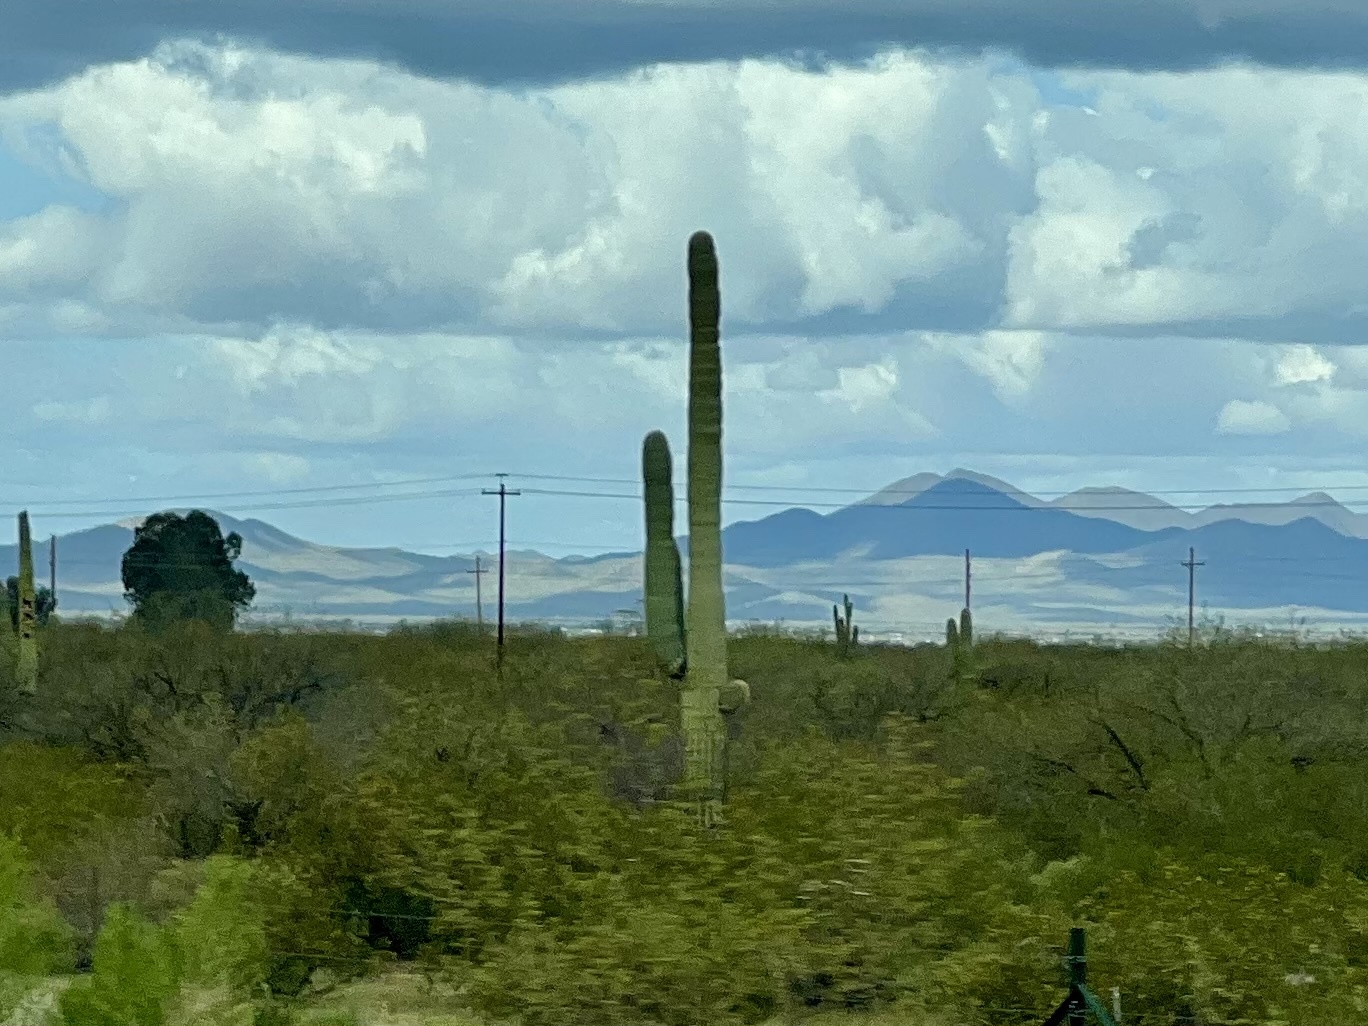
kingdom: Plantae
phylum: Tracheophyta
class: Magnoliopsida
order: Caryophyllales
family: Cactaceae
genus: Carnegiea
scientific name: Carnegiea gigantea
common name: Saguaro
